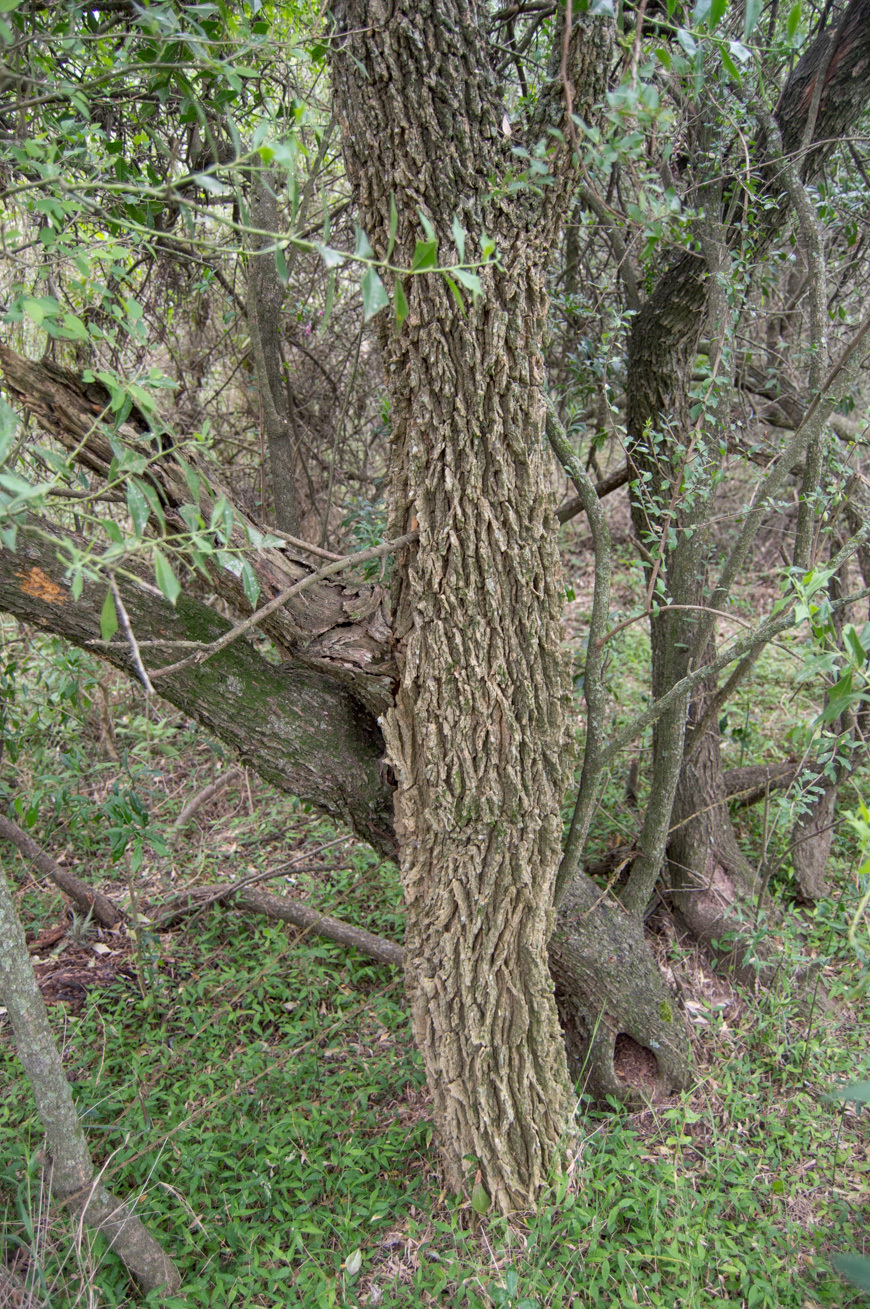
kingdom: Plantae
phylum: Tracheophyta
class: Magnoliopsida
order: Santalales
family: Cervantesiaceae
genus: Jodina
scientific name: Jodina rhombifolia
